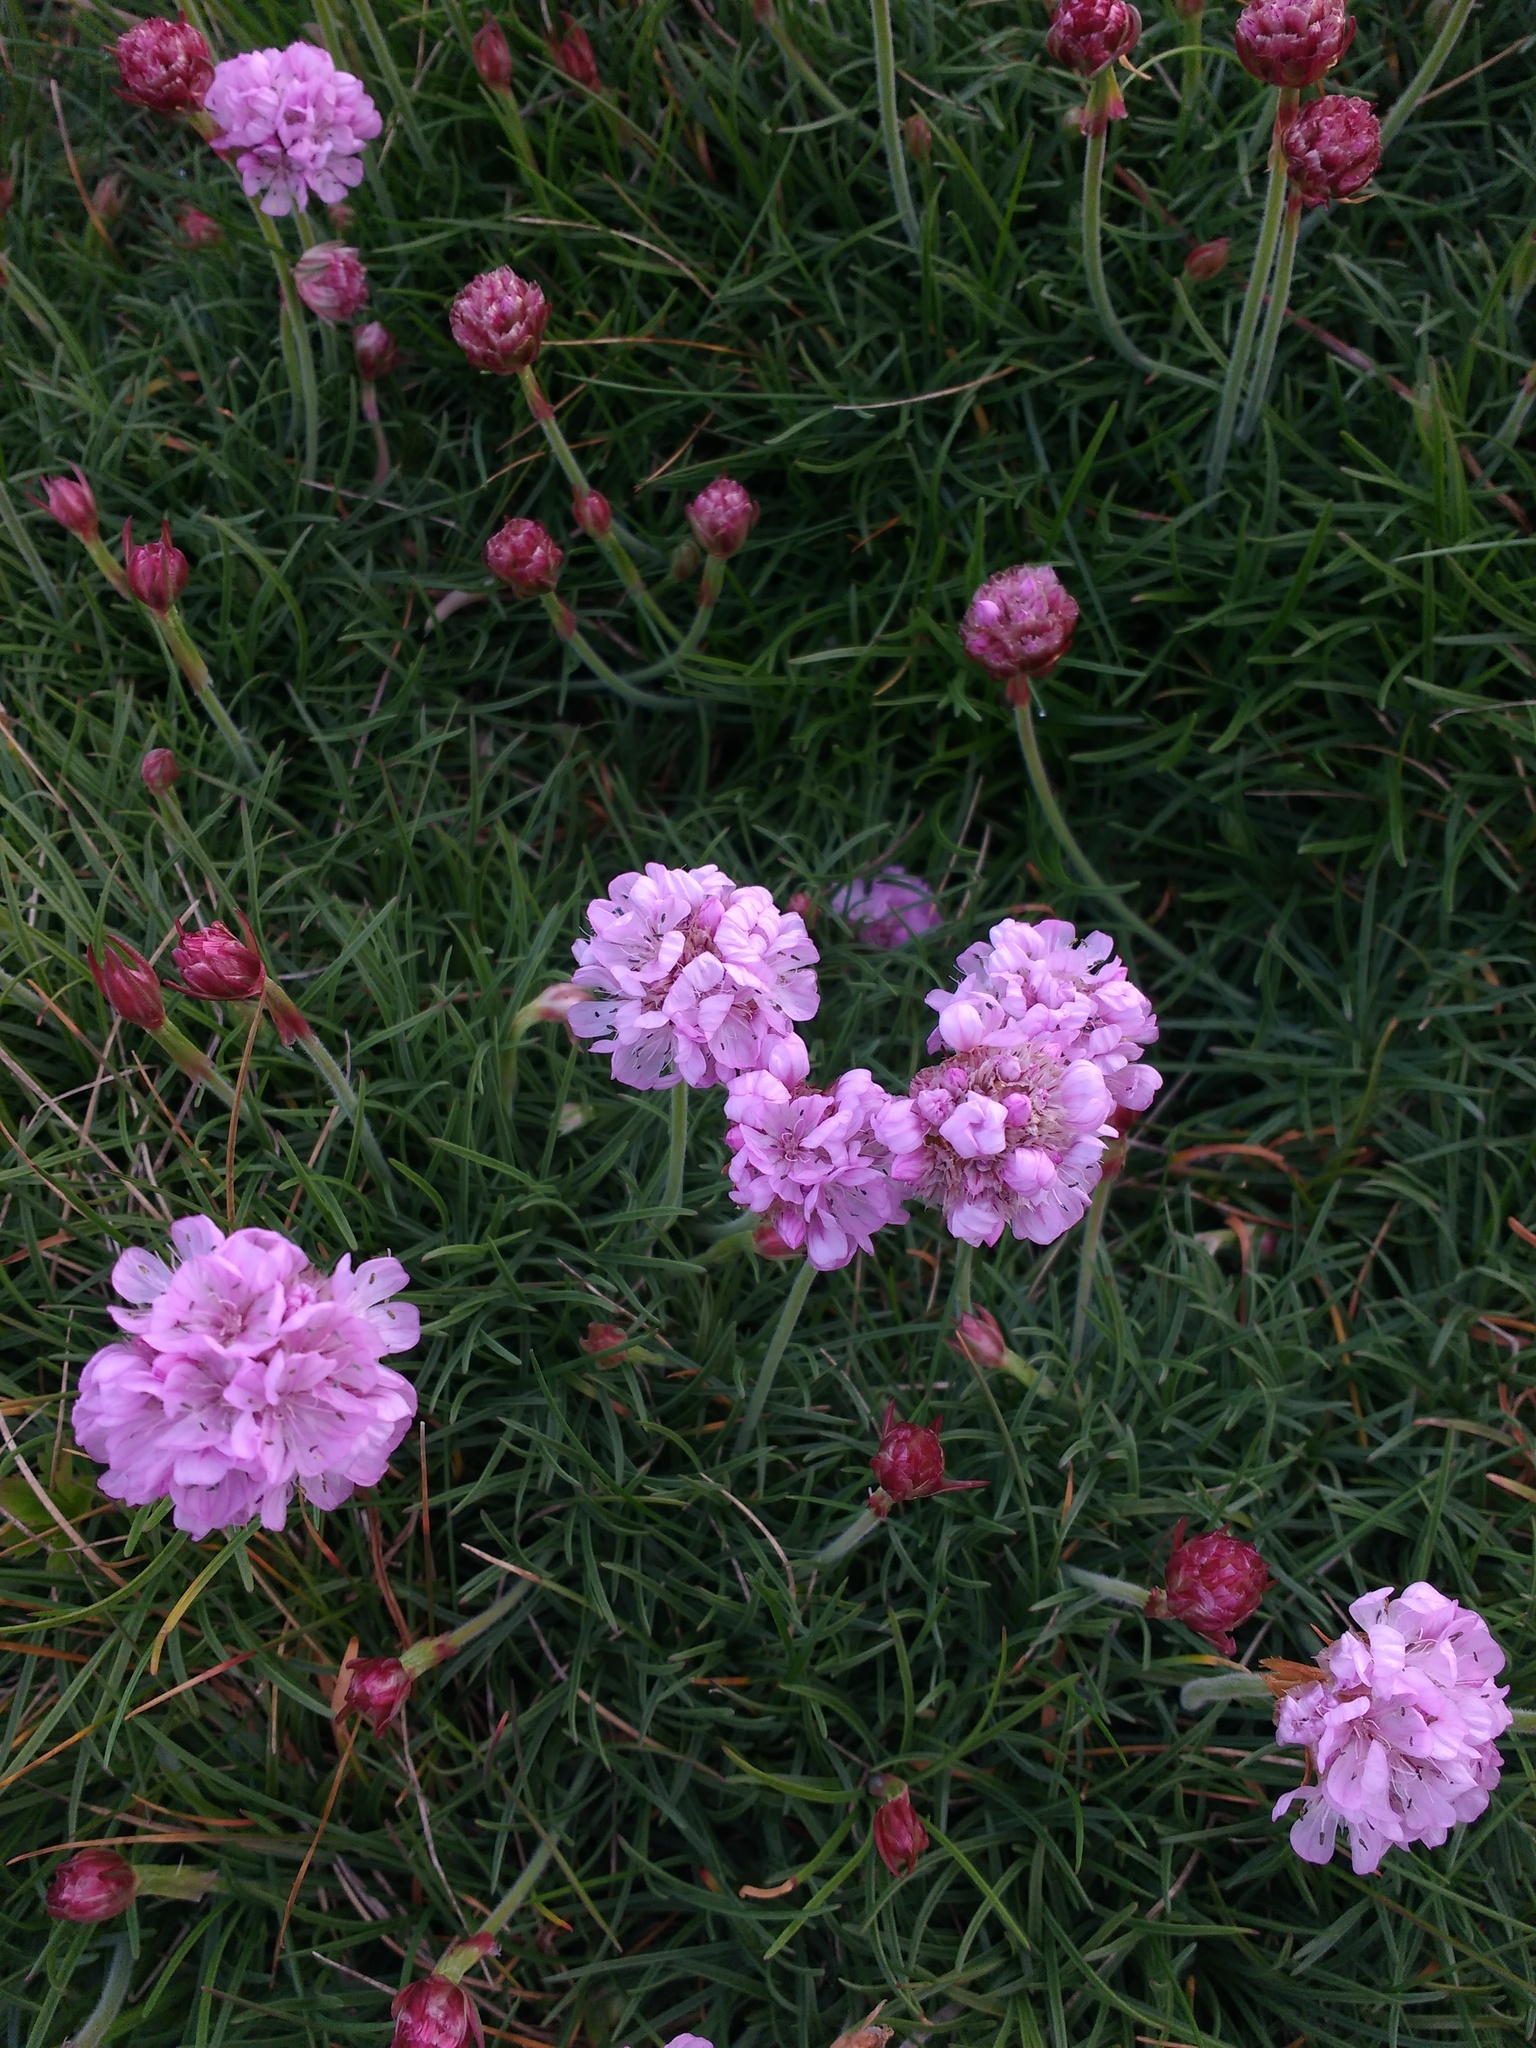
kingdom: Plantae
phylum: Tracheophyta
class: Magnoliopsida
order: Caryophyllales
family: Plumbaginaceae
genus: Armeria
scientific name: Armeria maritima
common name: Thrift
